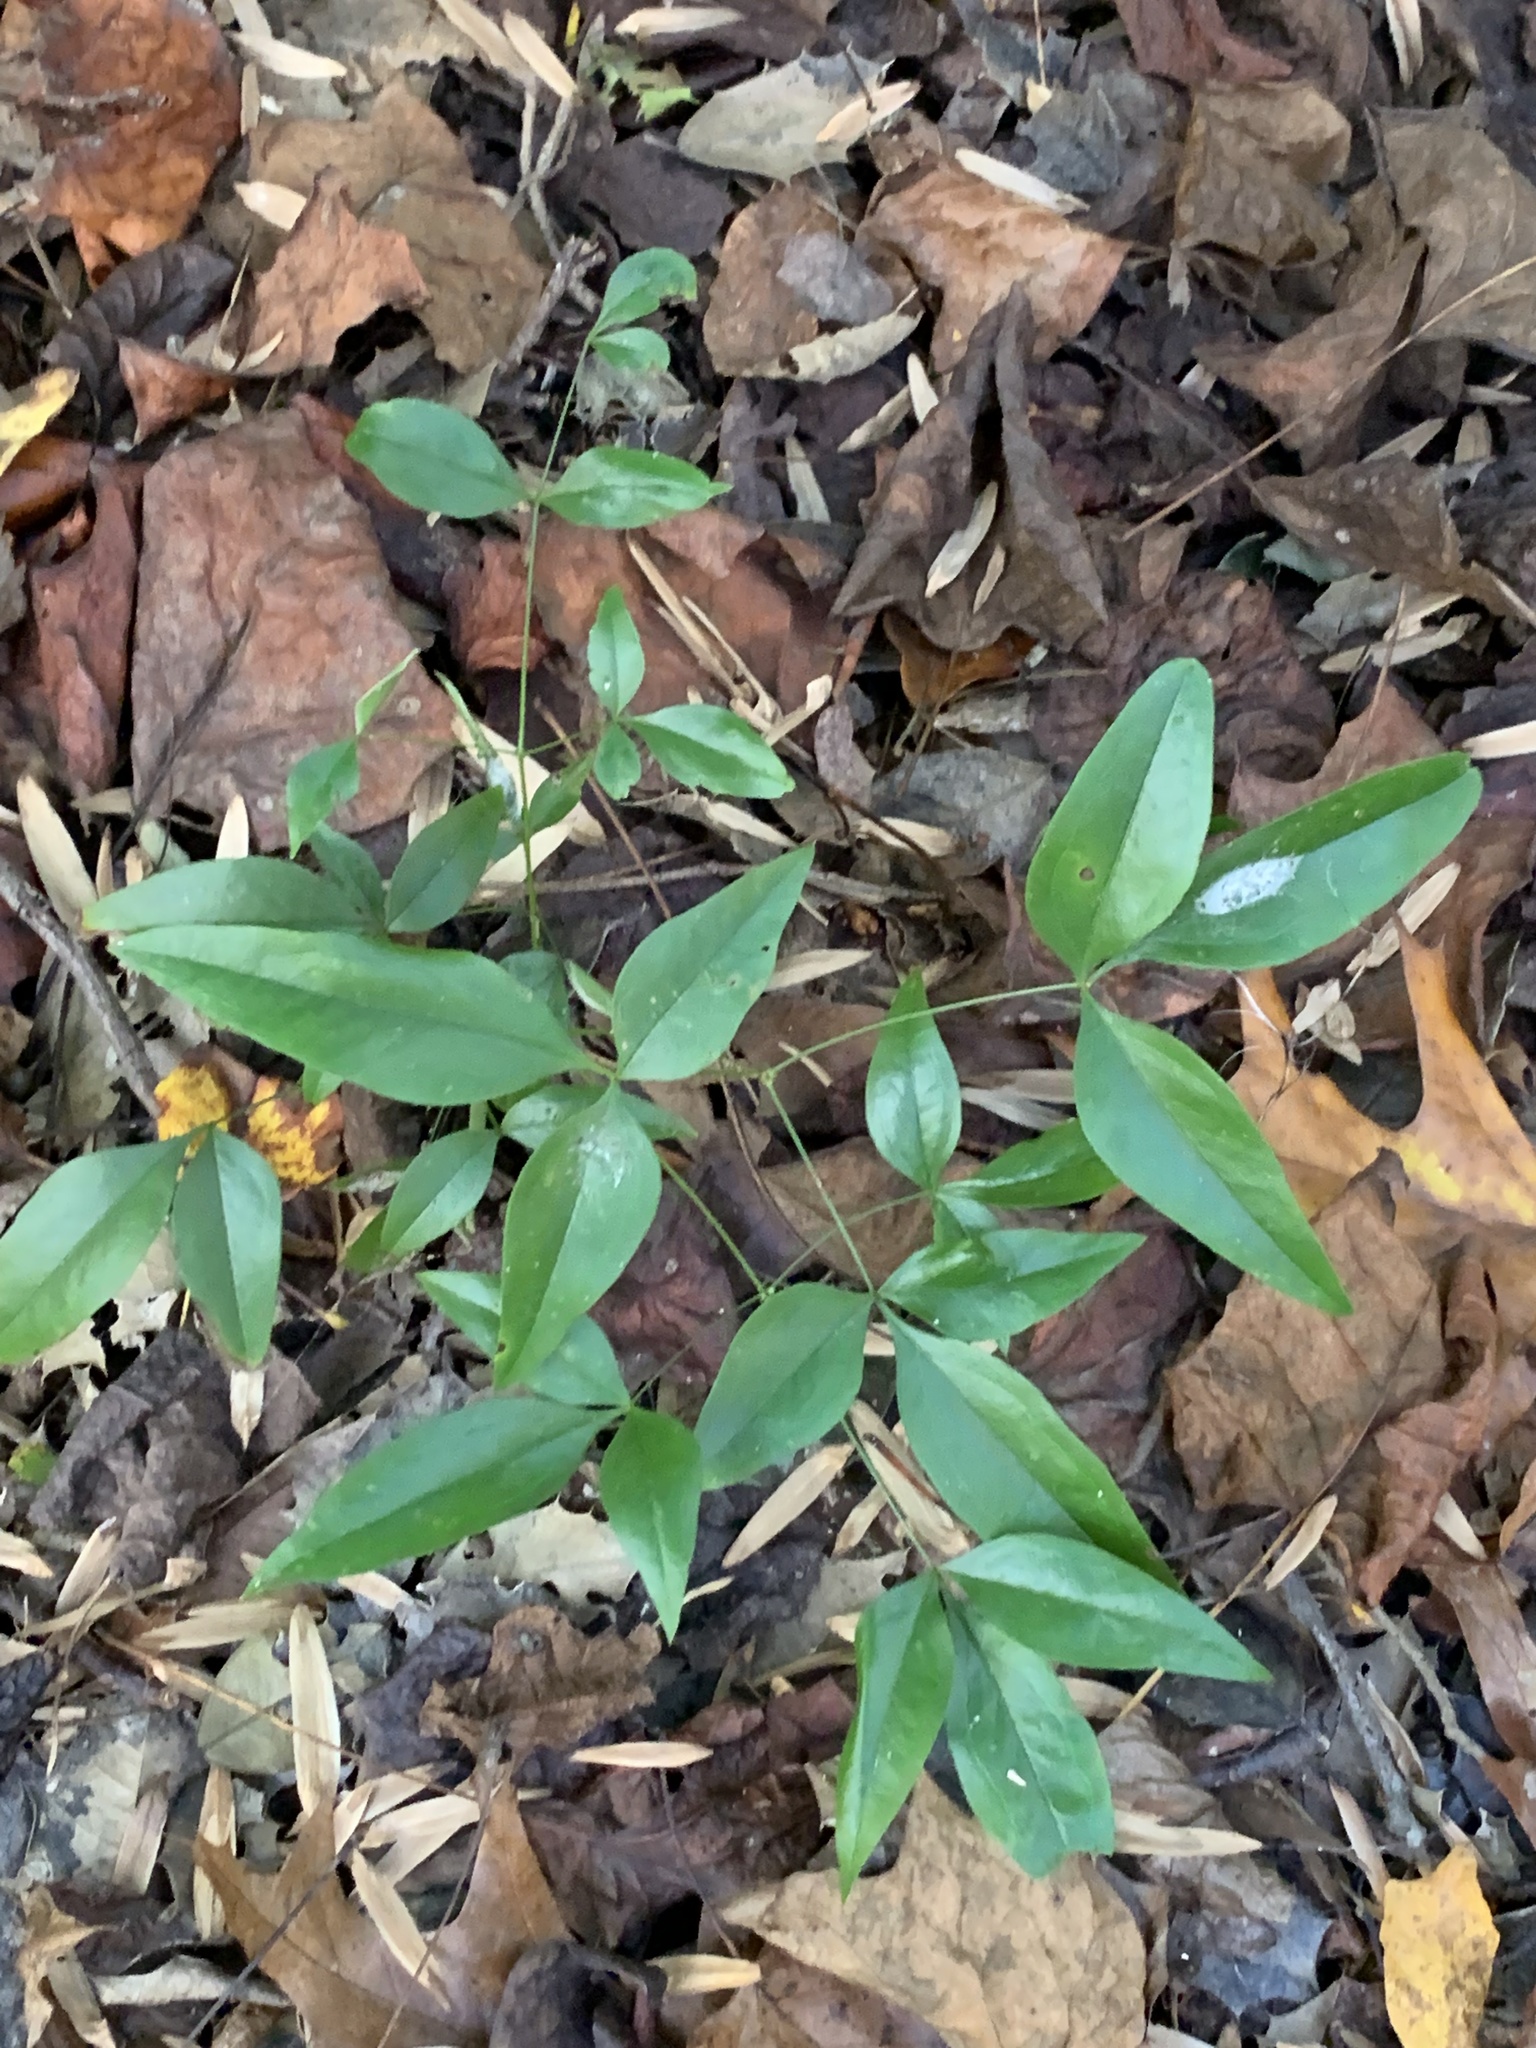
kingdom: Plantae
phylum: Tracheophyta
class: Magnoliopsida
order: Ranunculales
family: Berberidaceae
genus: Nandina
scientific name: Nandina domestica
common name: Sacred bamboo
